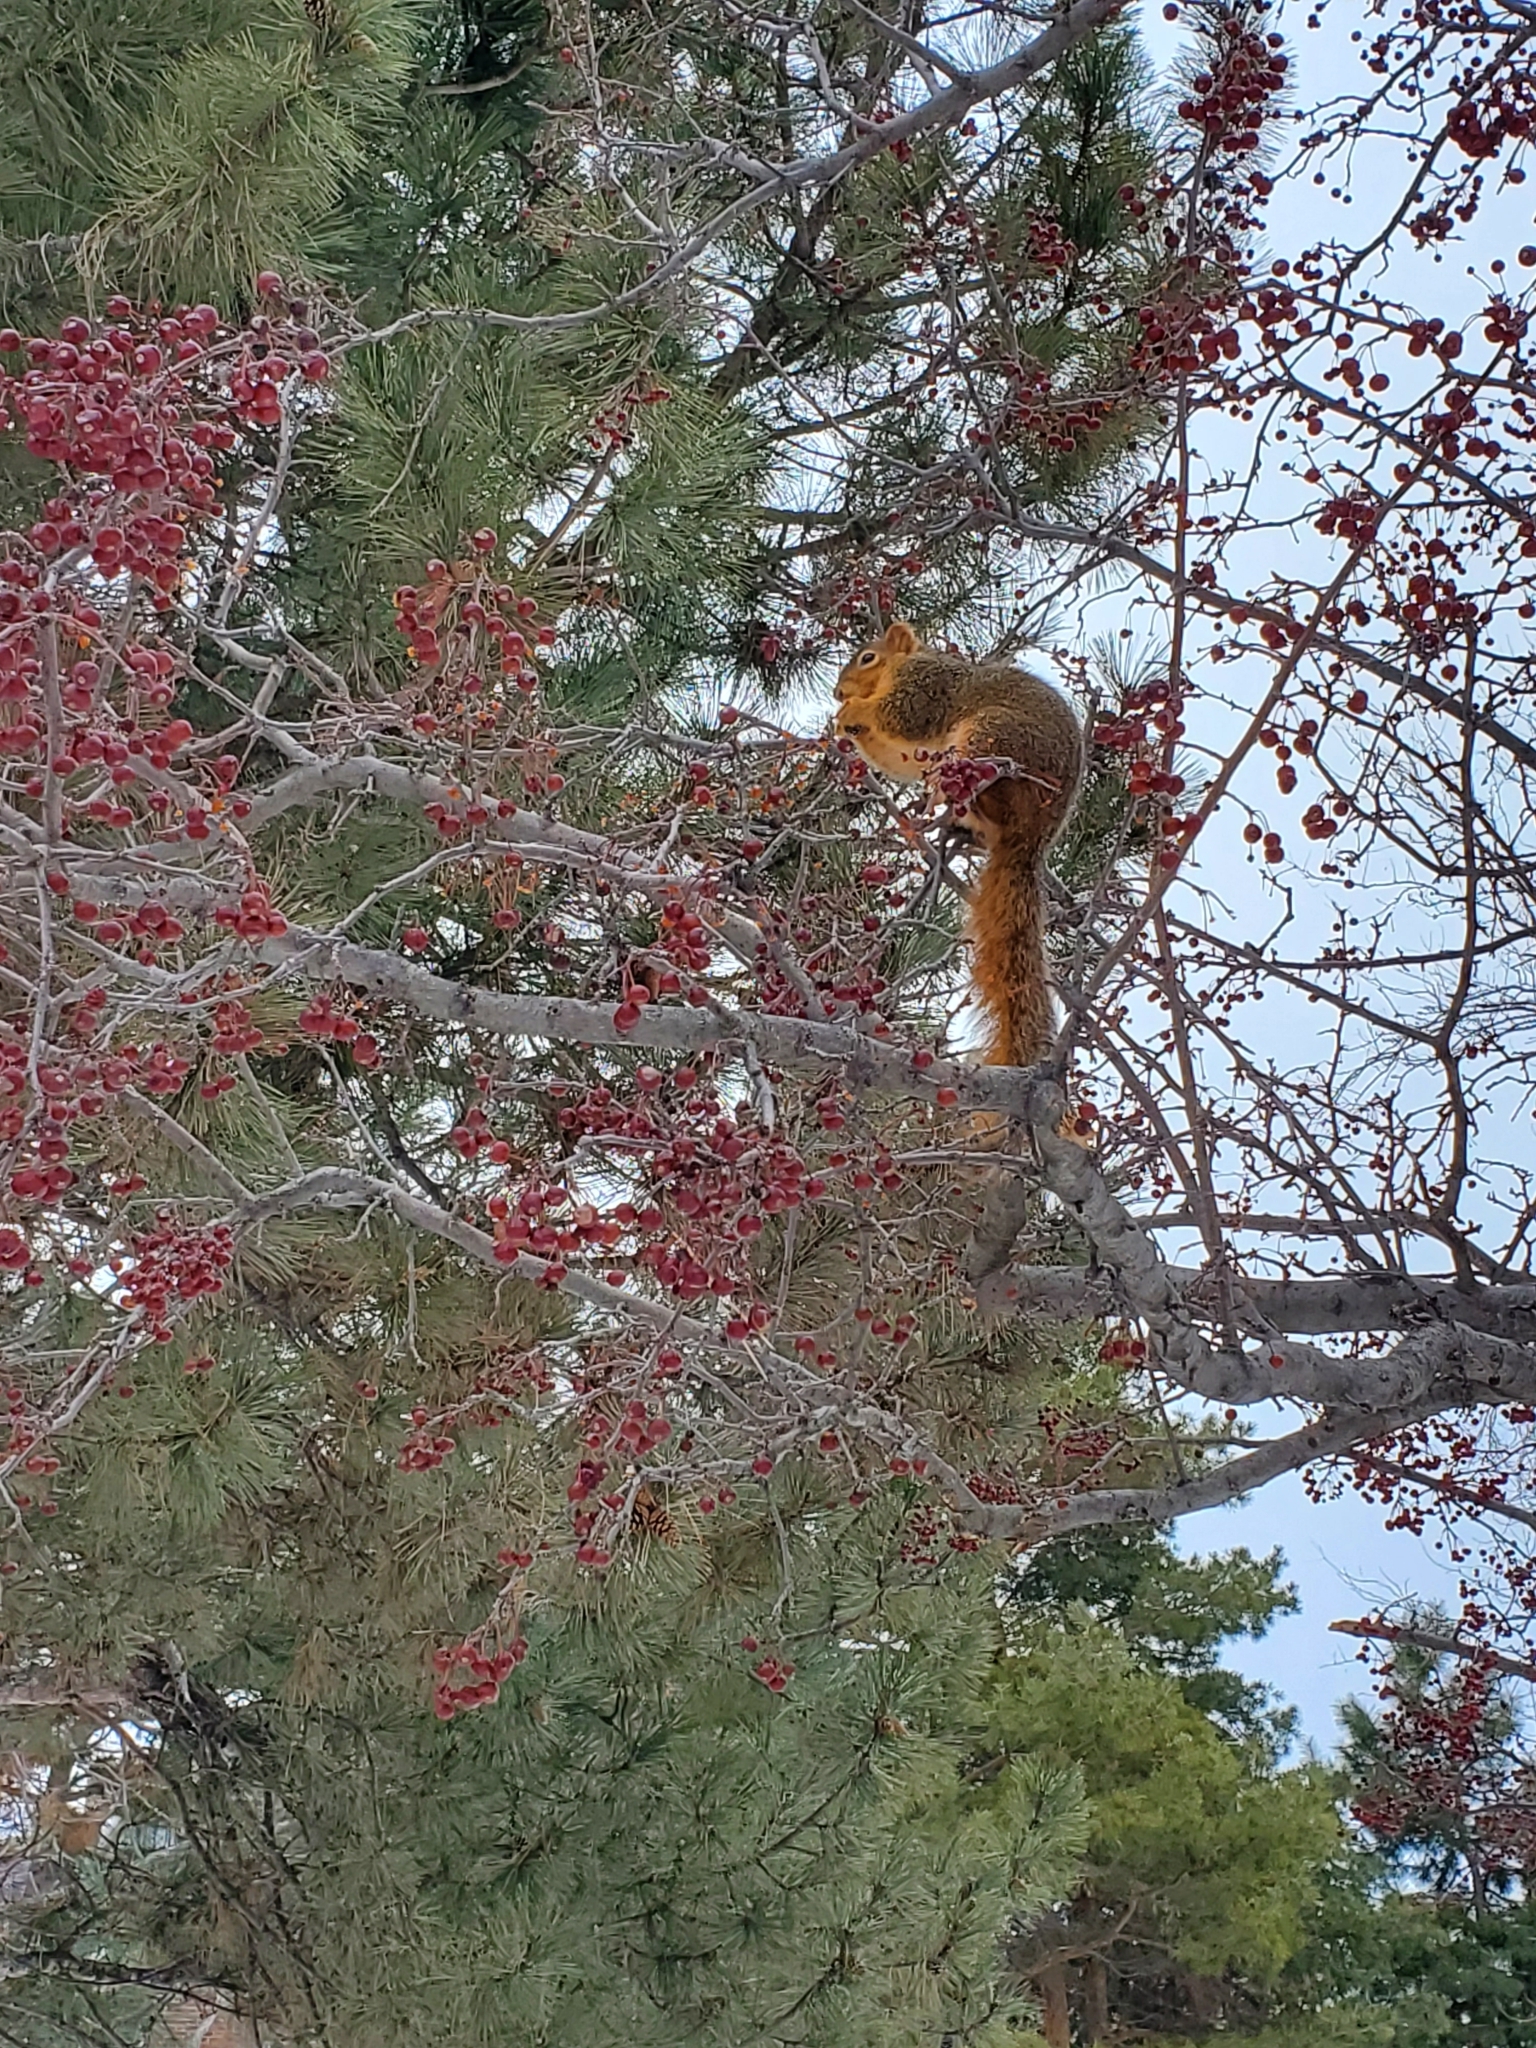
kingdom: Animalia
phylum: Chordata
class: Mammalia
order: Rodentia
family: Sciuridae
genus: Sciurus
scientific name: Sciurus niger
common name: Fox squirrel
